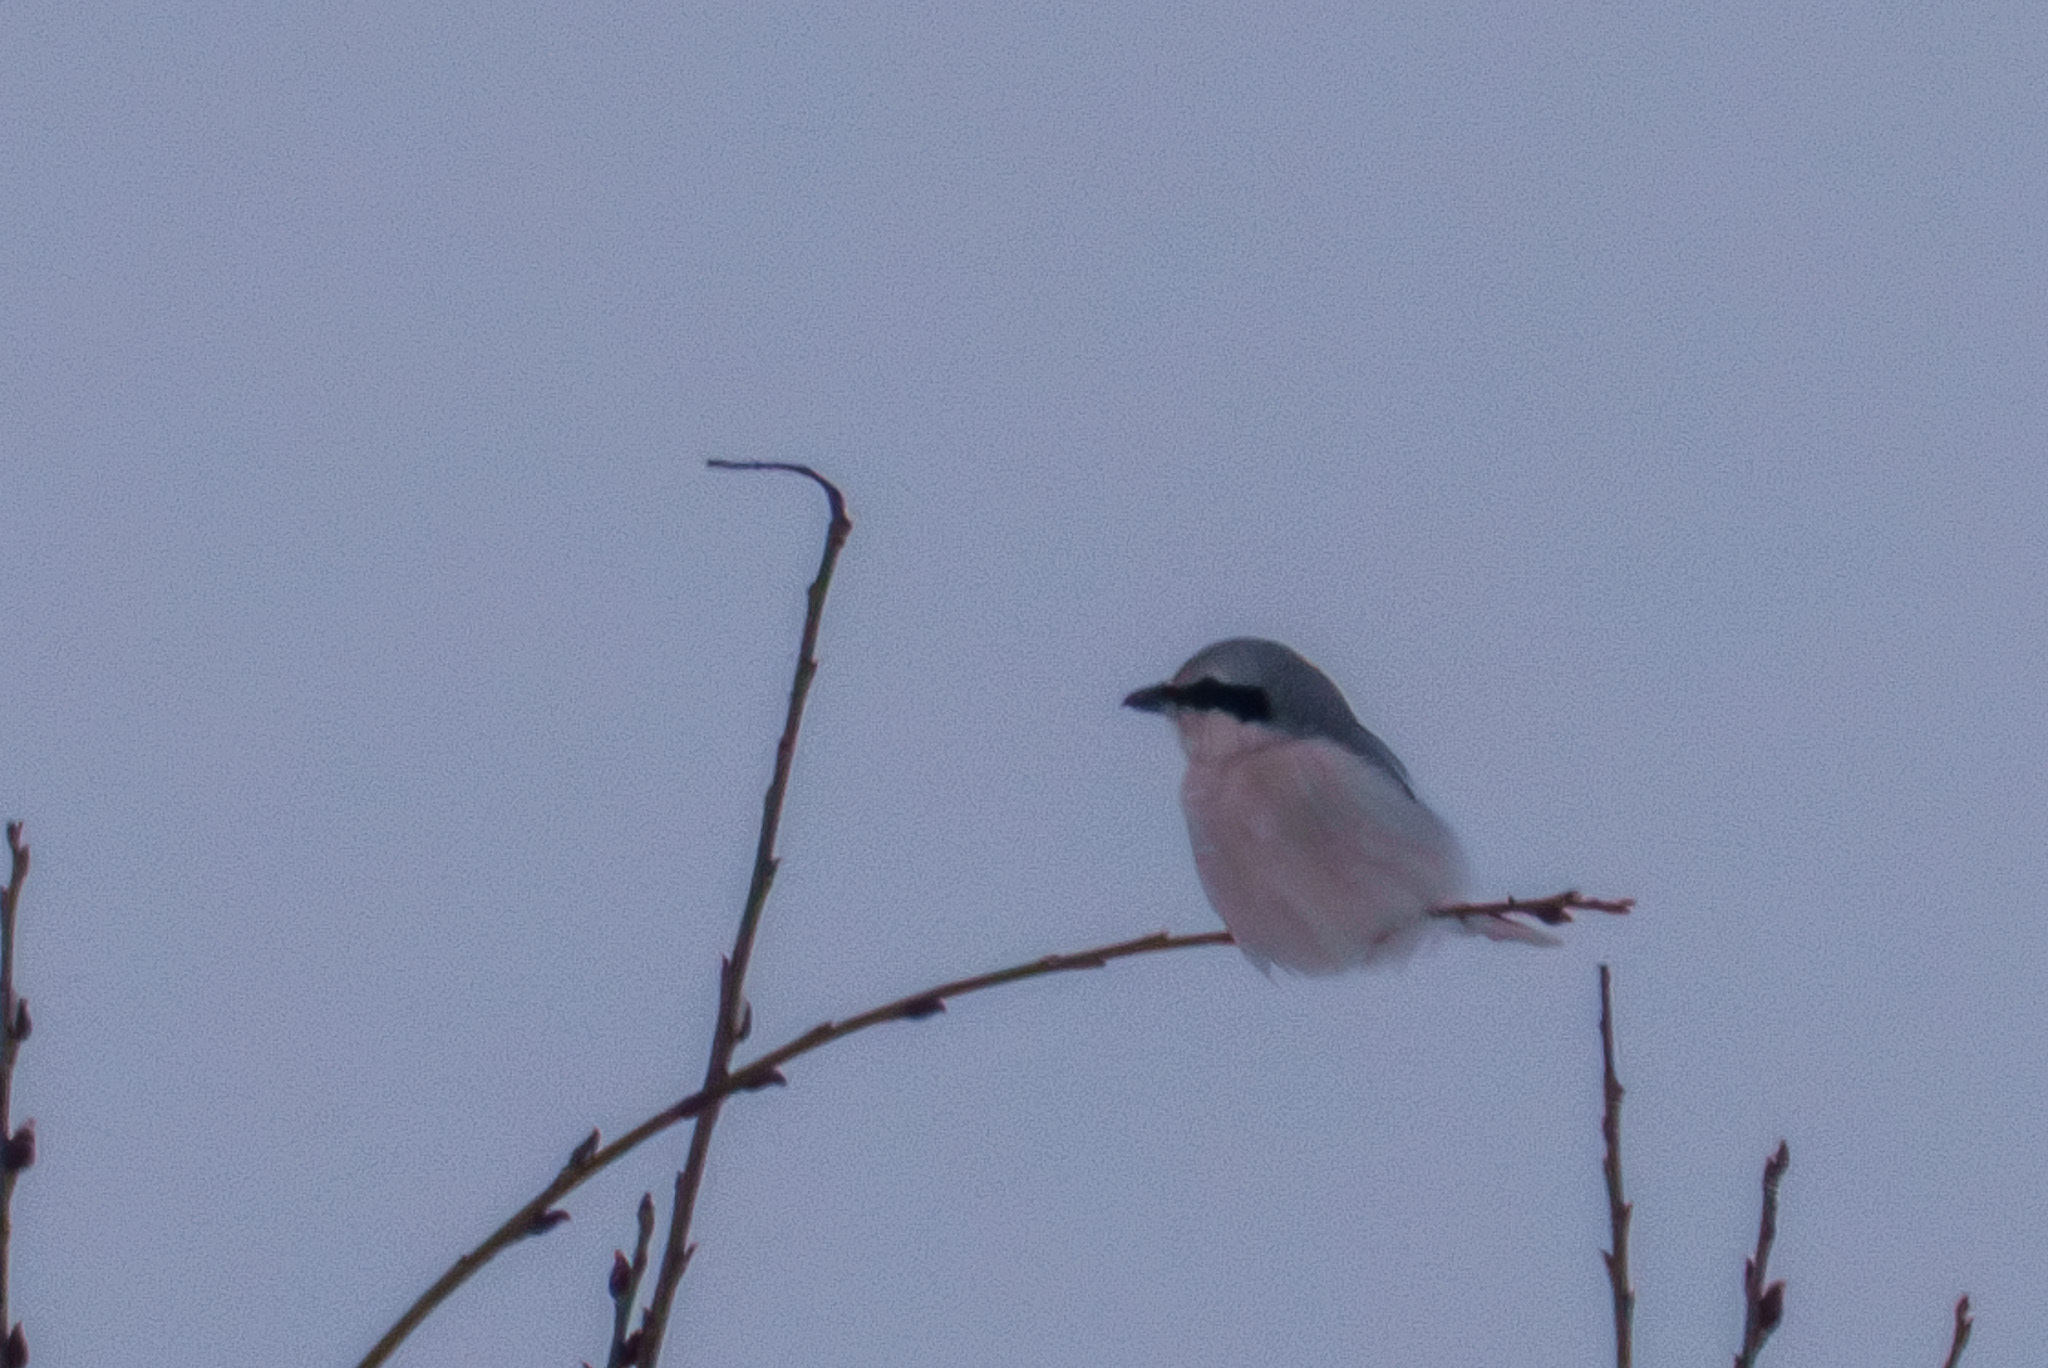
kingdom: Animalia
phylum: Chordata
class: Aves
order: Passeriformes
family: Laniidae
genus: Lanius
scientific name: Lanius excubitor
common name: Great grey shrike
